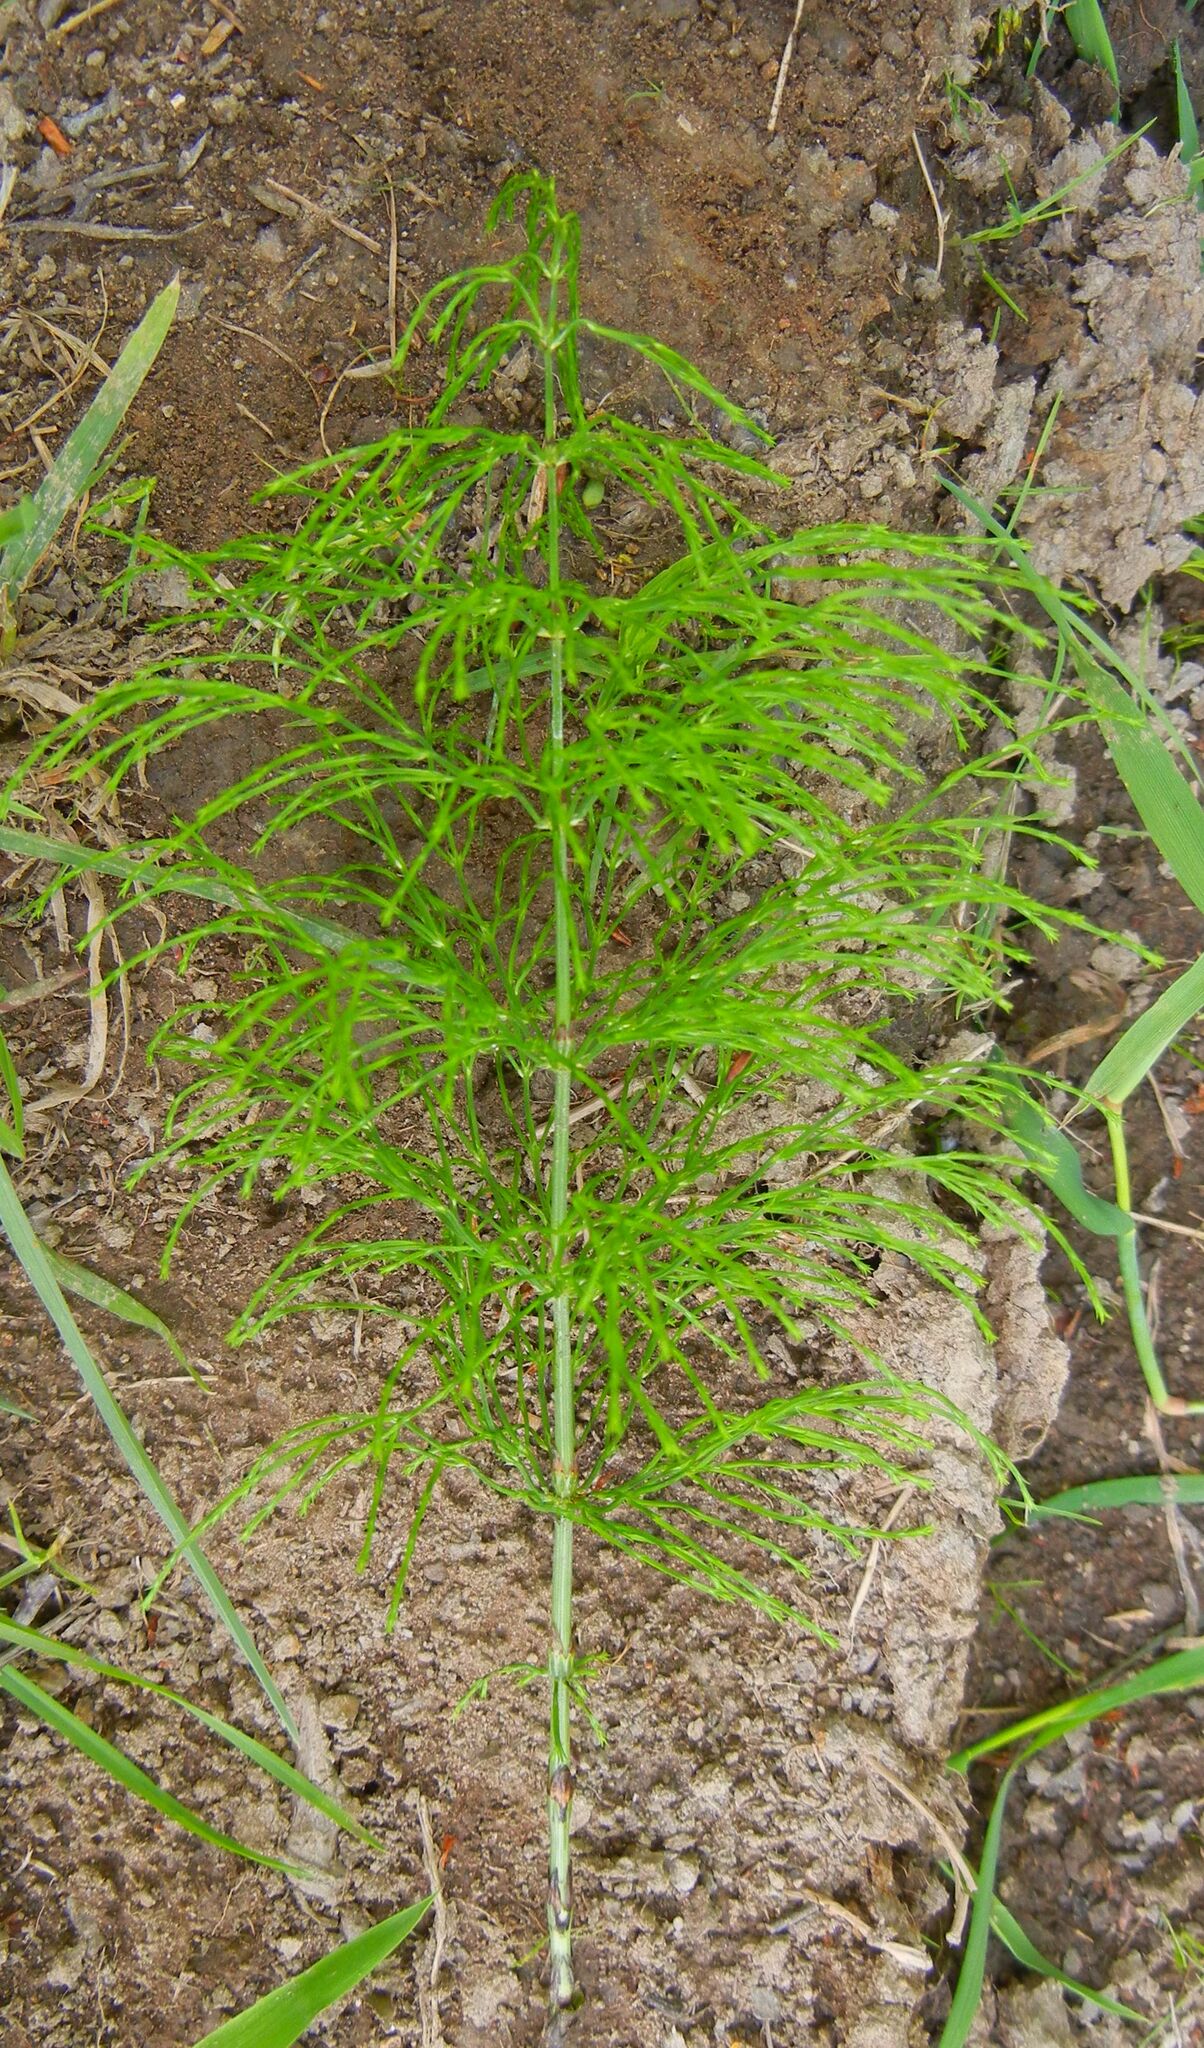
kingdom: Plantae
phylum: Tracheophyta
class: Polypodiopsida
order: Equisetales
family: Equisetaceae
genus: Equisetum
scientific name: Equisetum sylvaticum
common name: Wood horsetail
